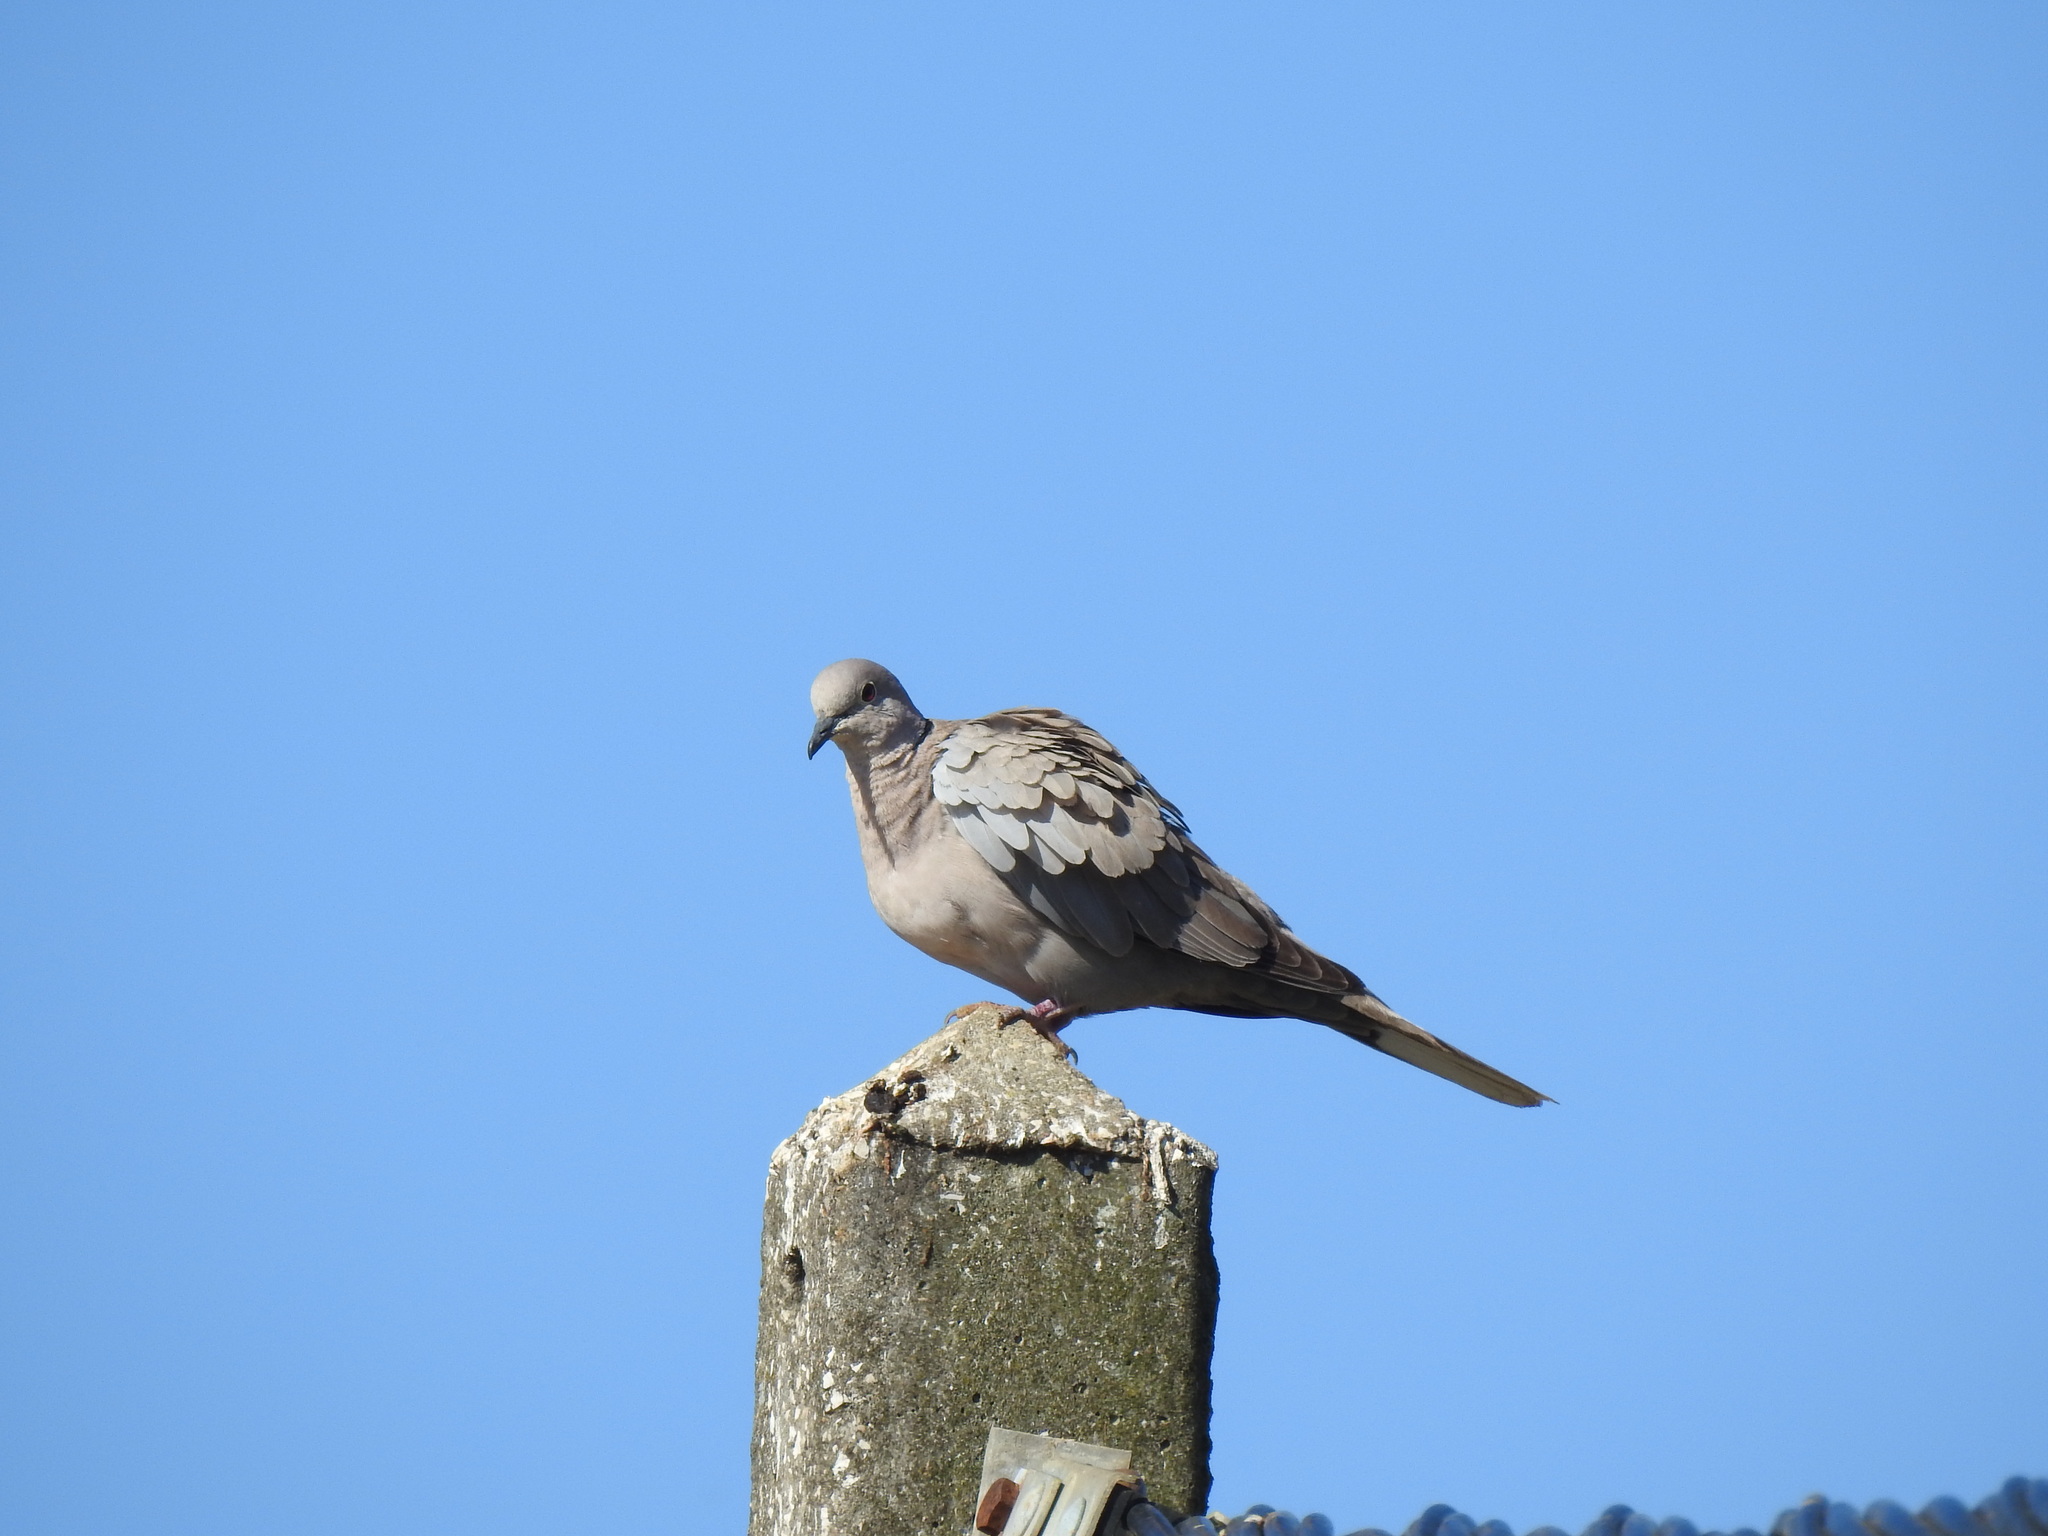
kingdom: Animalia
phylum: Chordata
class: Aves
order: Columbiformes
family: Columbidae
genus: Streptopelia
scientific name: Streptopelia decaocto
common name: Eurasian collared dove
